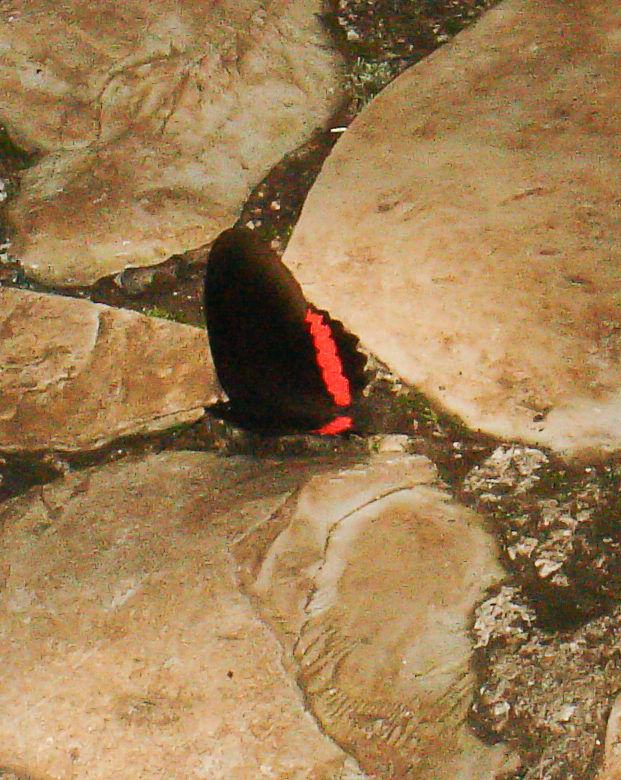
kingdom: Animalia
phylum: Arthropoda
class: Insecta
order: Lepidoptera
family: Nymphalidae
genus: Biblis
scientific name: Biblis aganisa
